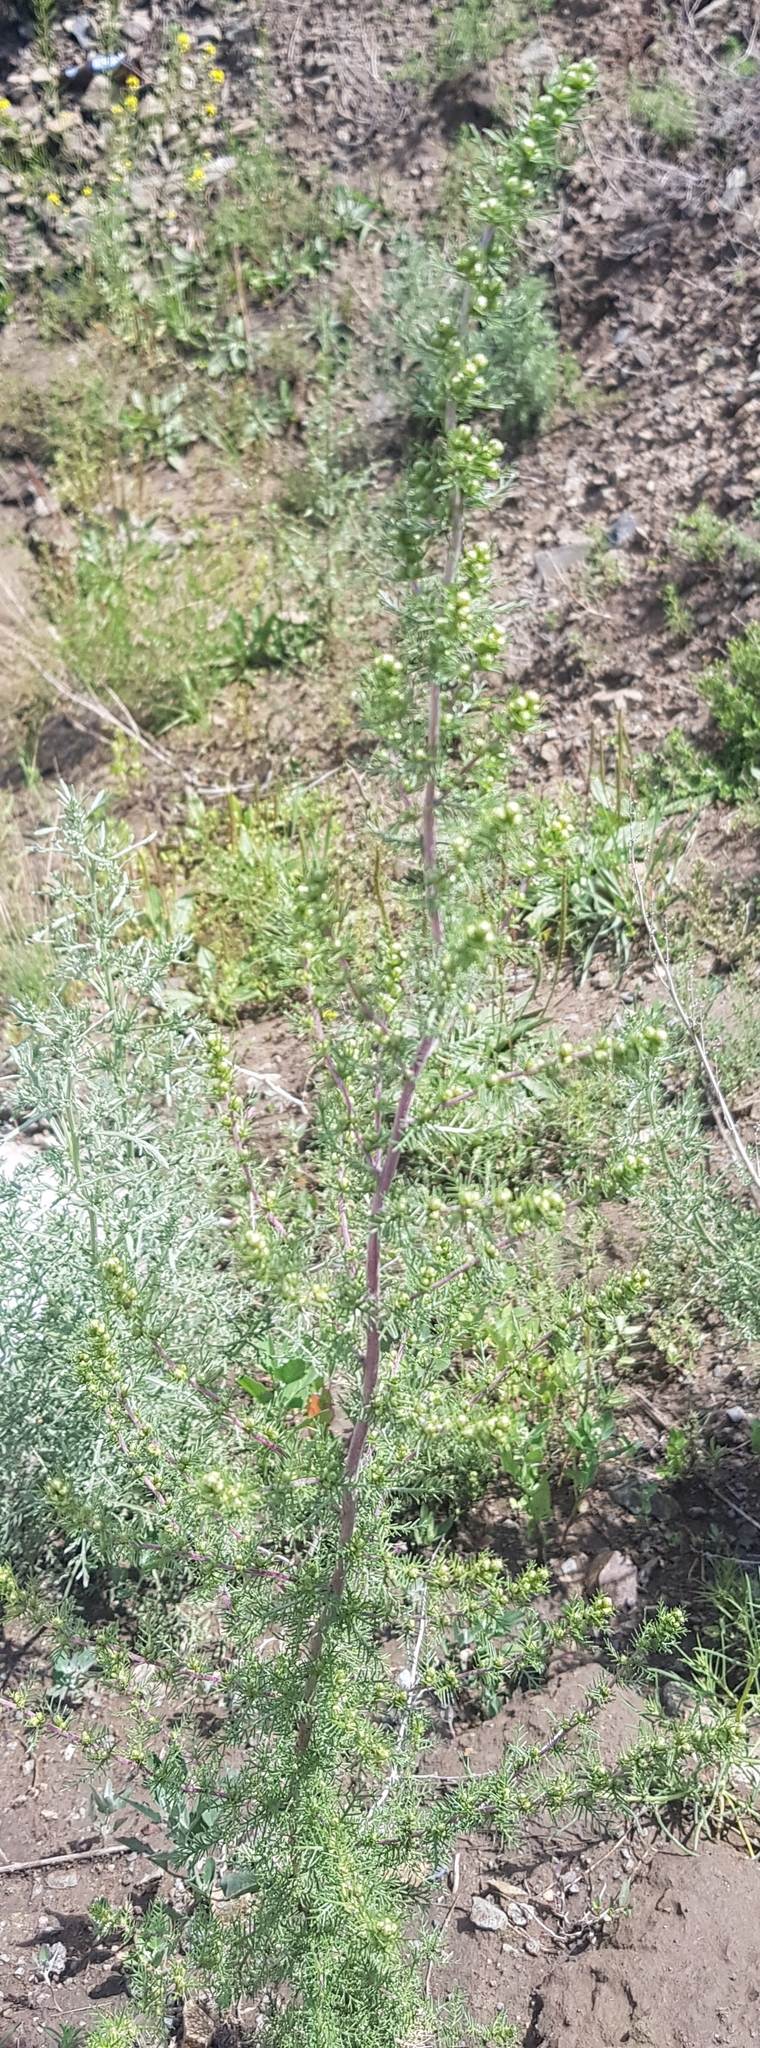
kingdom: Plantae
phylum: Tracheophyta
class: Magnoliopsida
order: Asterales
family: Asteraceae
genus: Neopallasia
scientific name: Neopallasia pectinata
